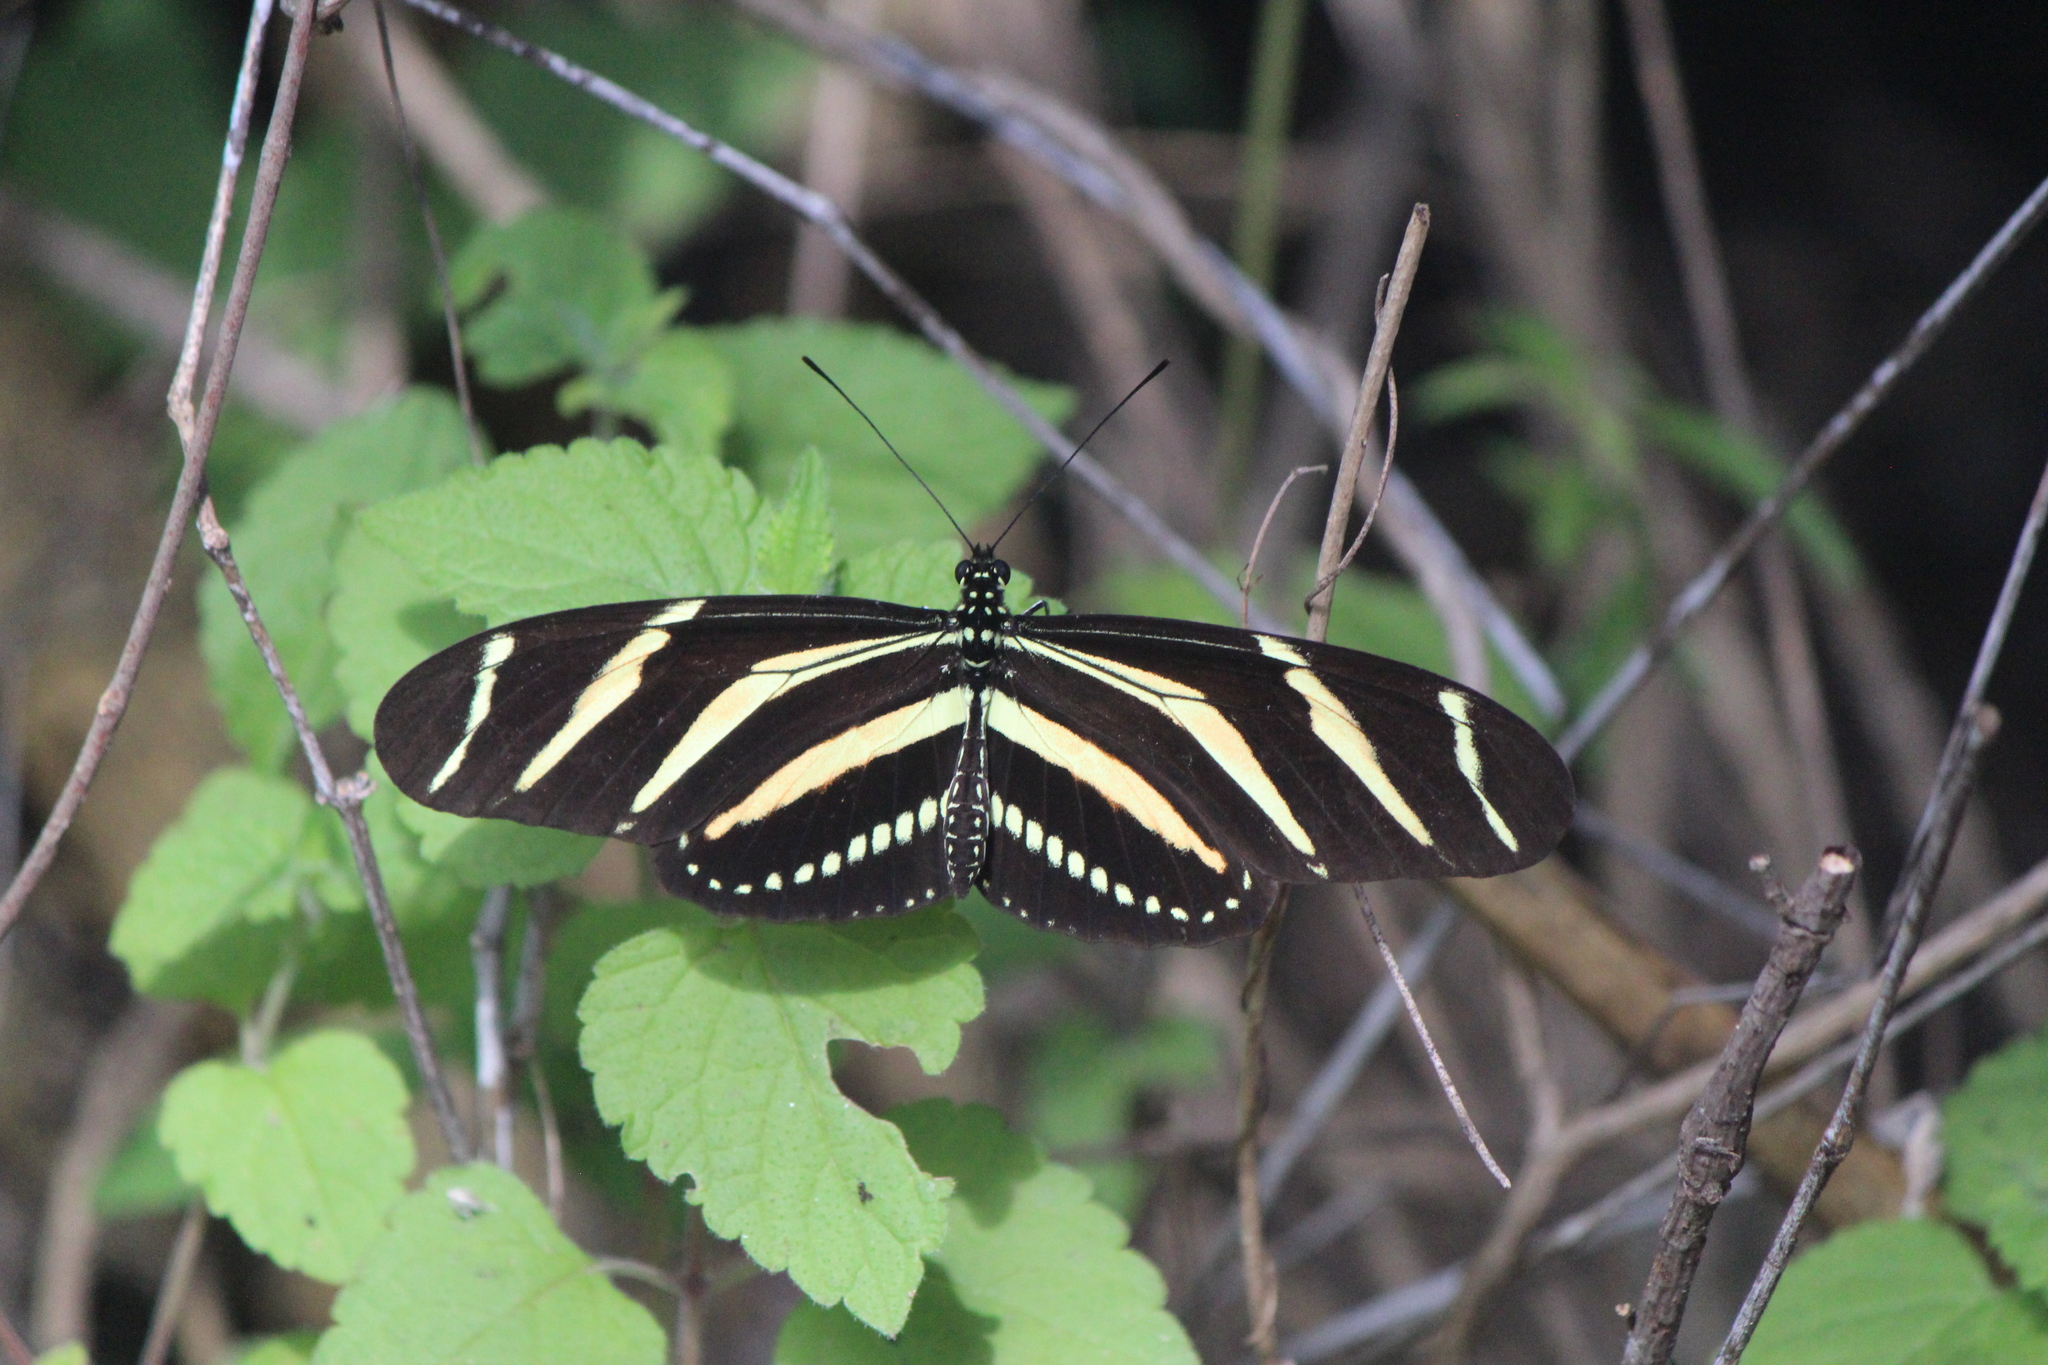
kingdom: Animalia
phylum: Arthropoda
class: Insecta
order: Lepidoptera
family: Nymphalidae
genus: Heliconius
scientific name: Heliconius charithonia
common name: Zebra long wing
